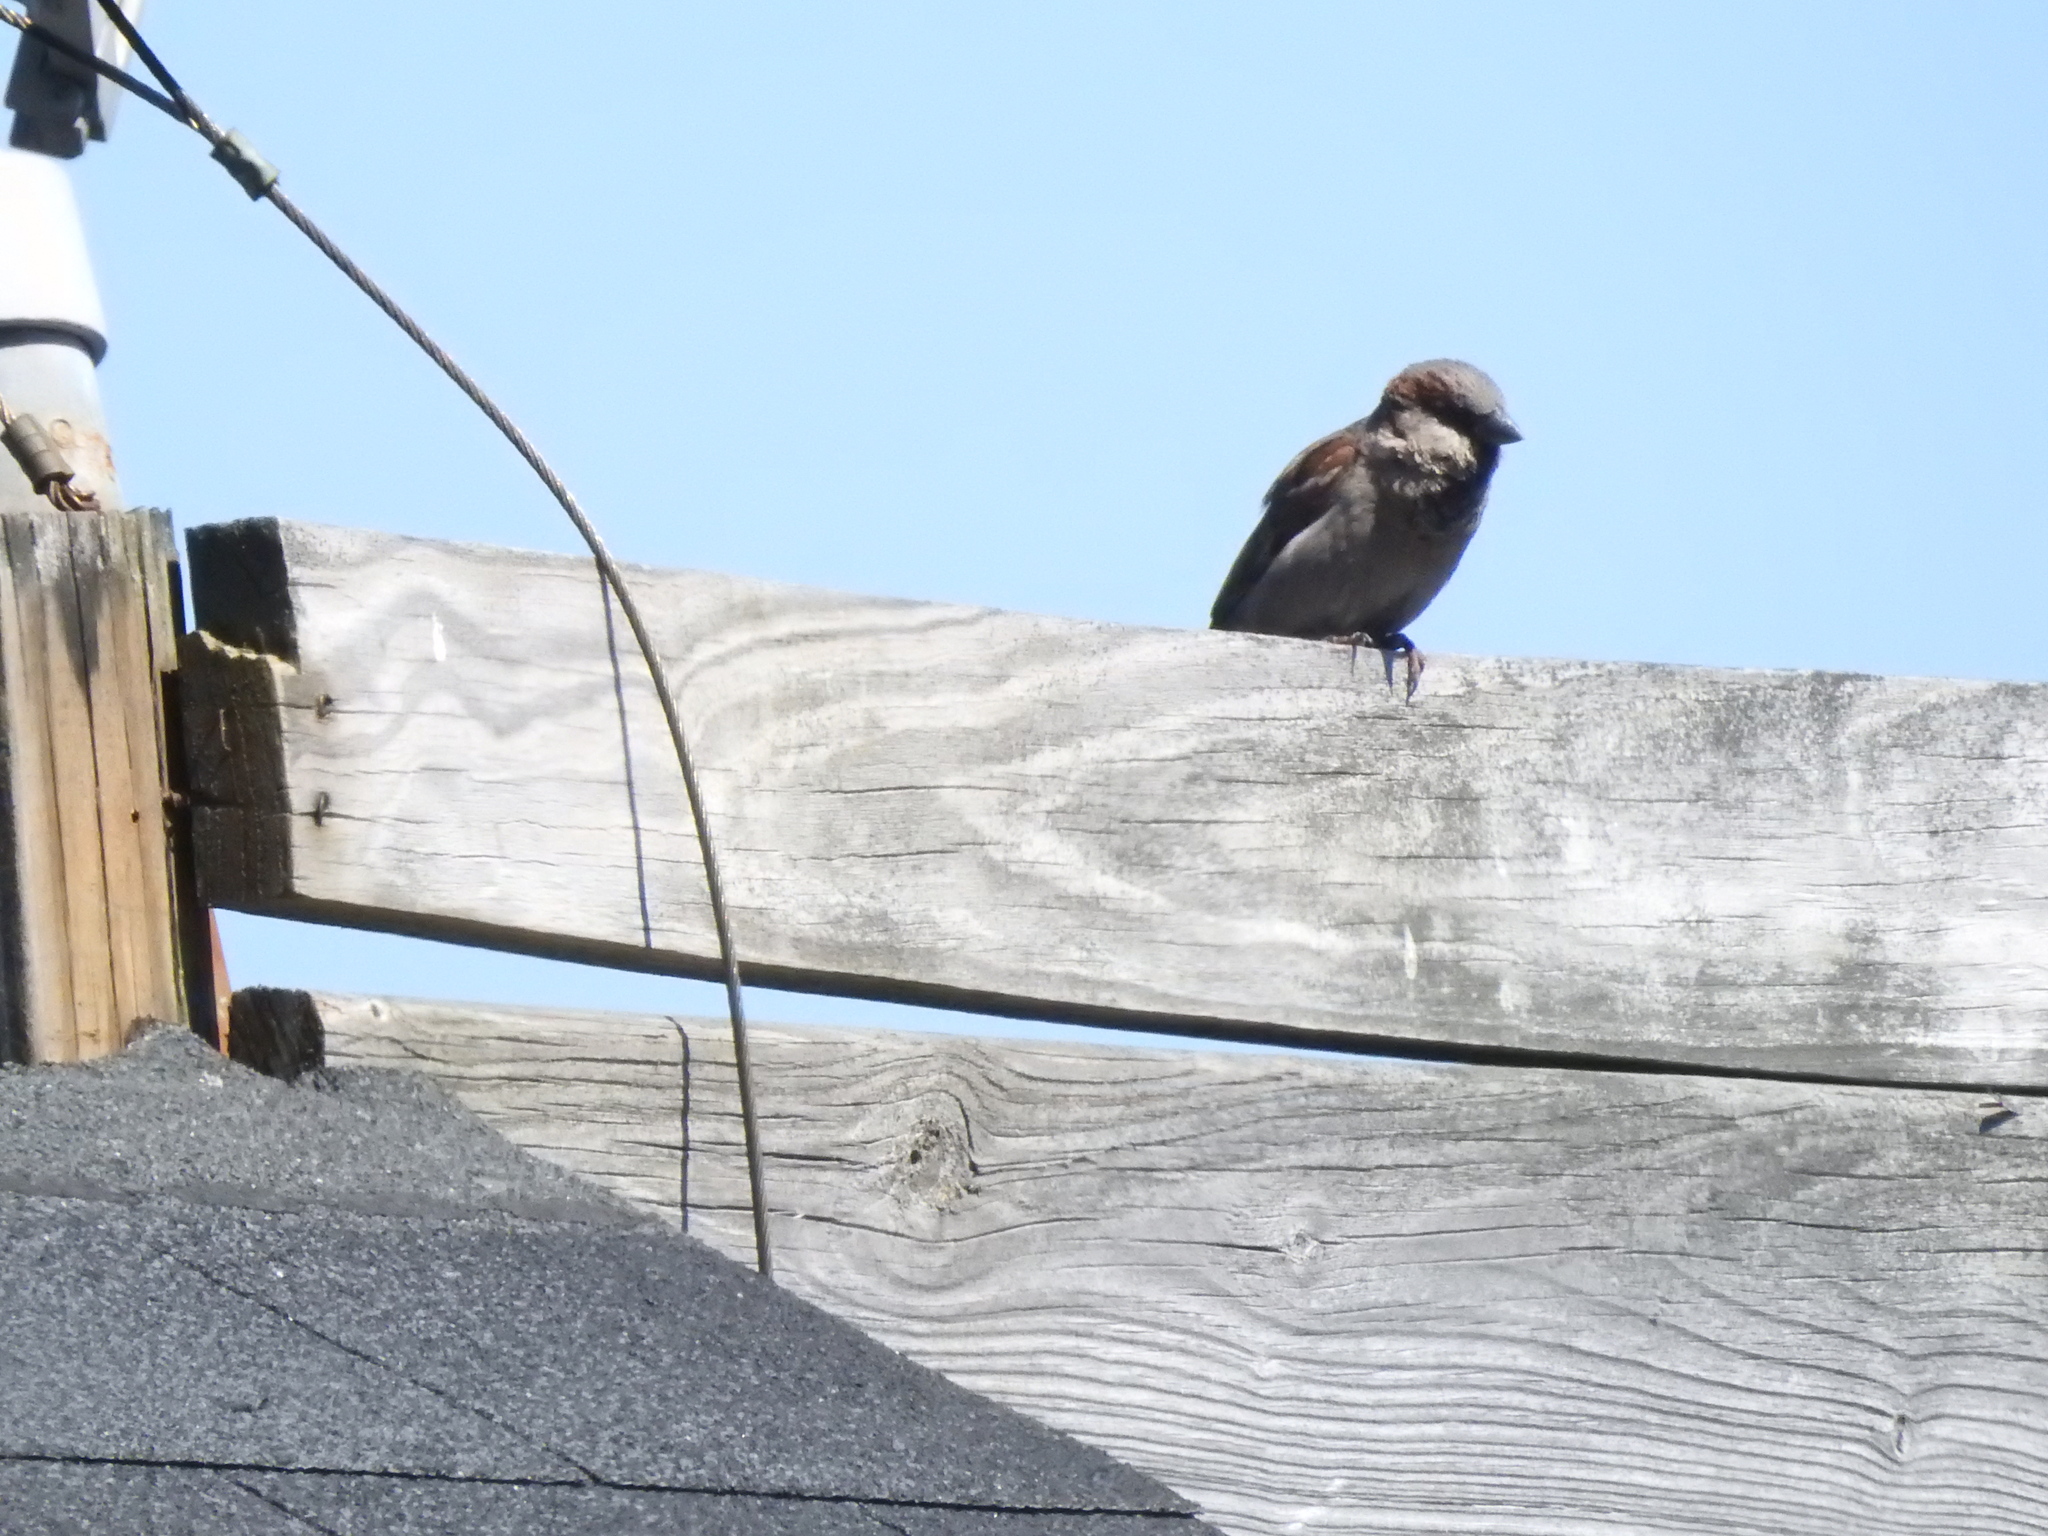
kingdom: Animalia
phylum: Chordata
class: Aves
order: Passeriformes
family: Passeridae
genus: Passer
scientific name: Passer domesticus
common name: House sparrow
